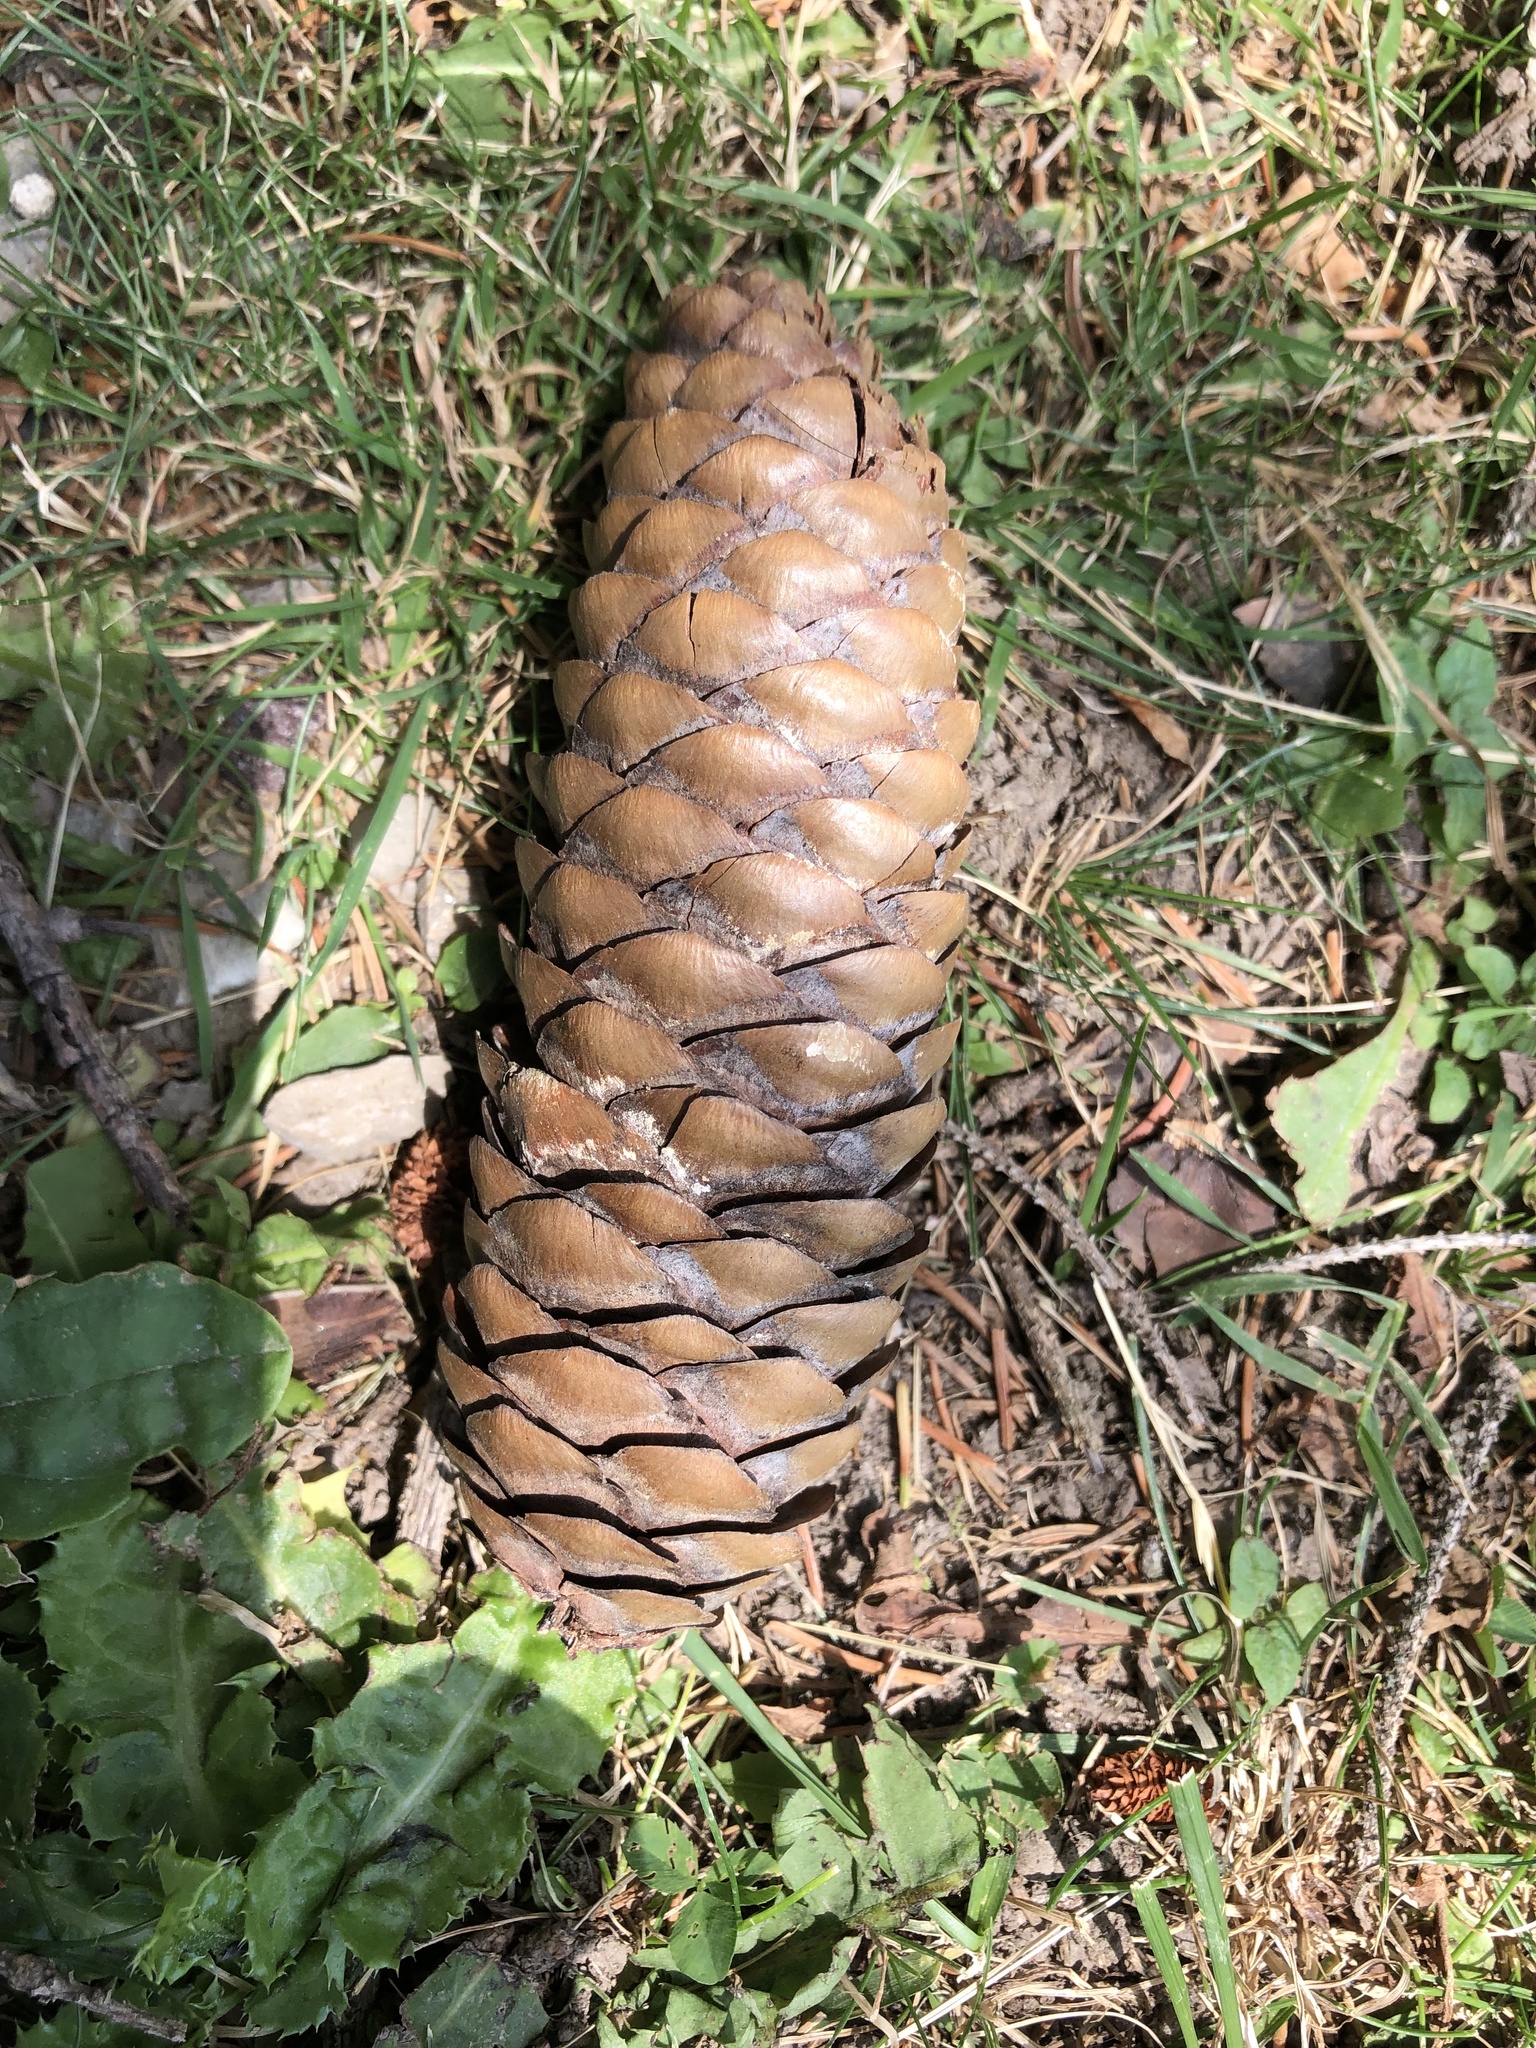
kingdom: Plantae
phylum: Tracheophyta
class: Pinopsida
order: Pinales
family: Pinaceae
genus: Picea
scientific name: Picea abies
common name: Norway spruce
